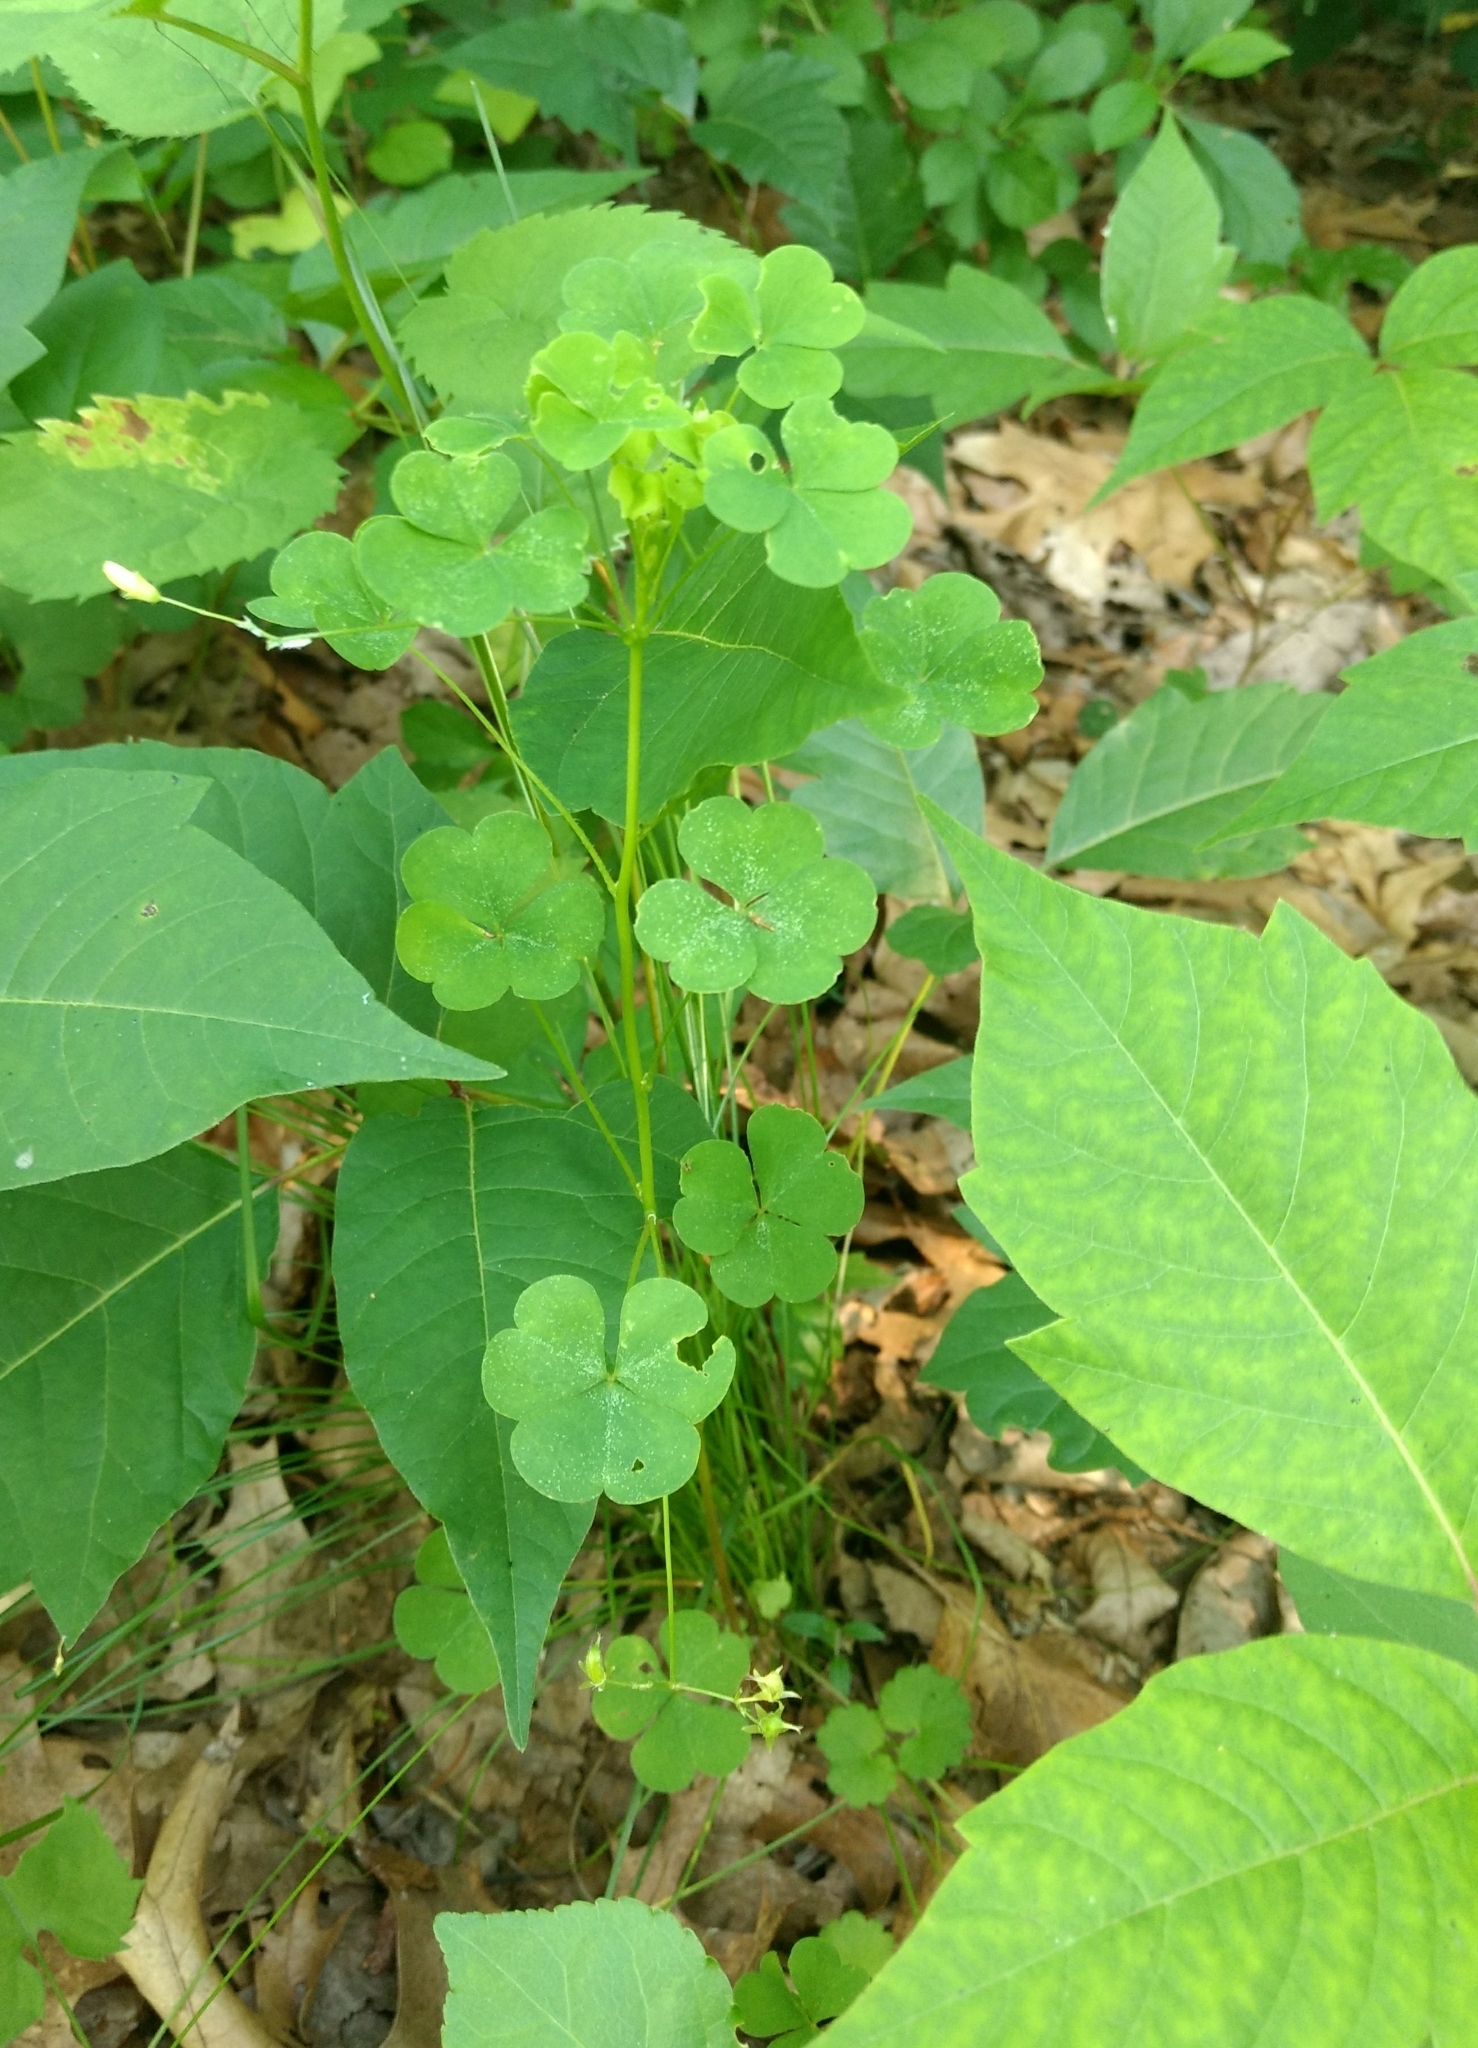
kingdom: Plantae
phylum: Tracheophyta
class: Magnoliopsida
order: Oxalidales
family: Oxalidaceae
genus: Oxalis
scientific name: Oxalis stricta
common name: Upright yellow-sorrel
